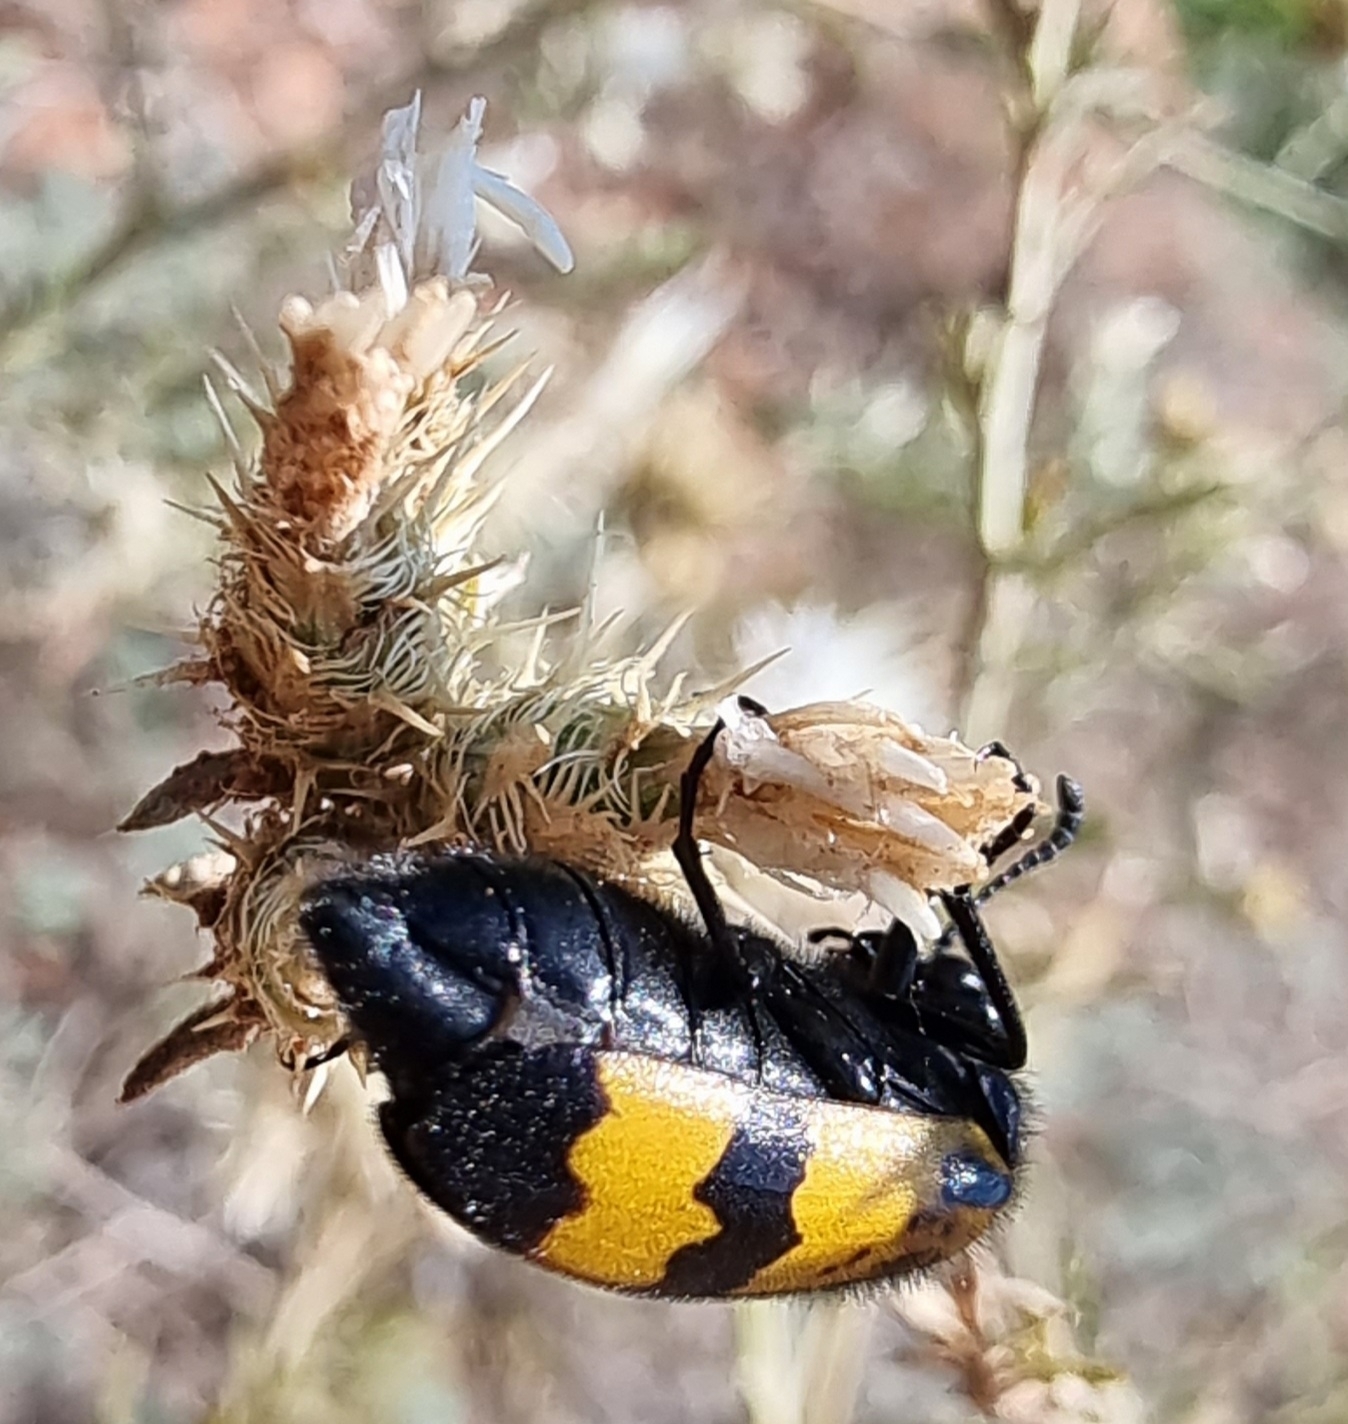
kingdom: Animalia
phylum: Arthropoda
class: Insecta
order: Coleoptera
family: Meloidae
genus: Mylabris
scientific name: Mylabris variabilis
